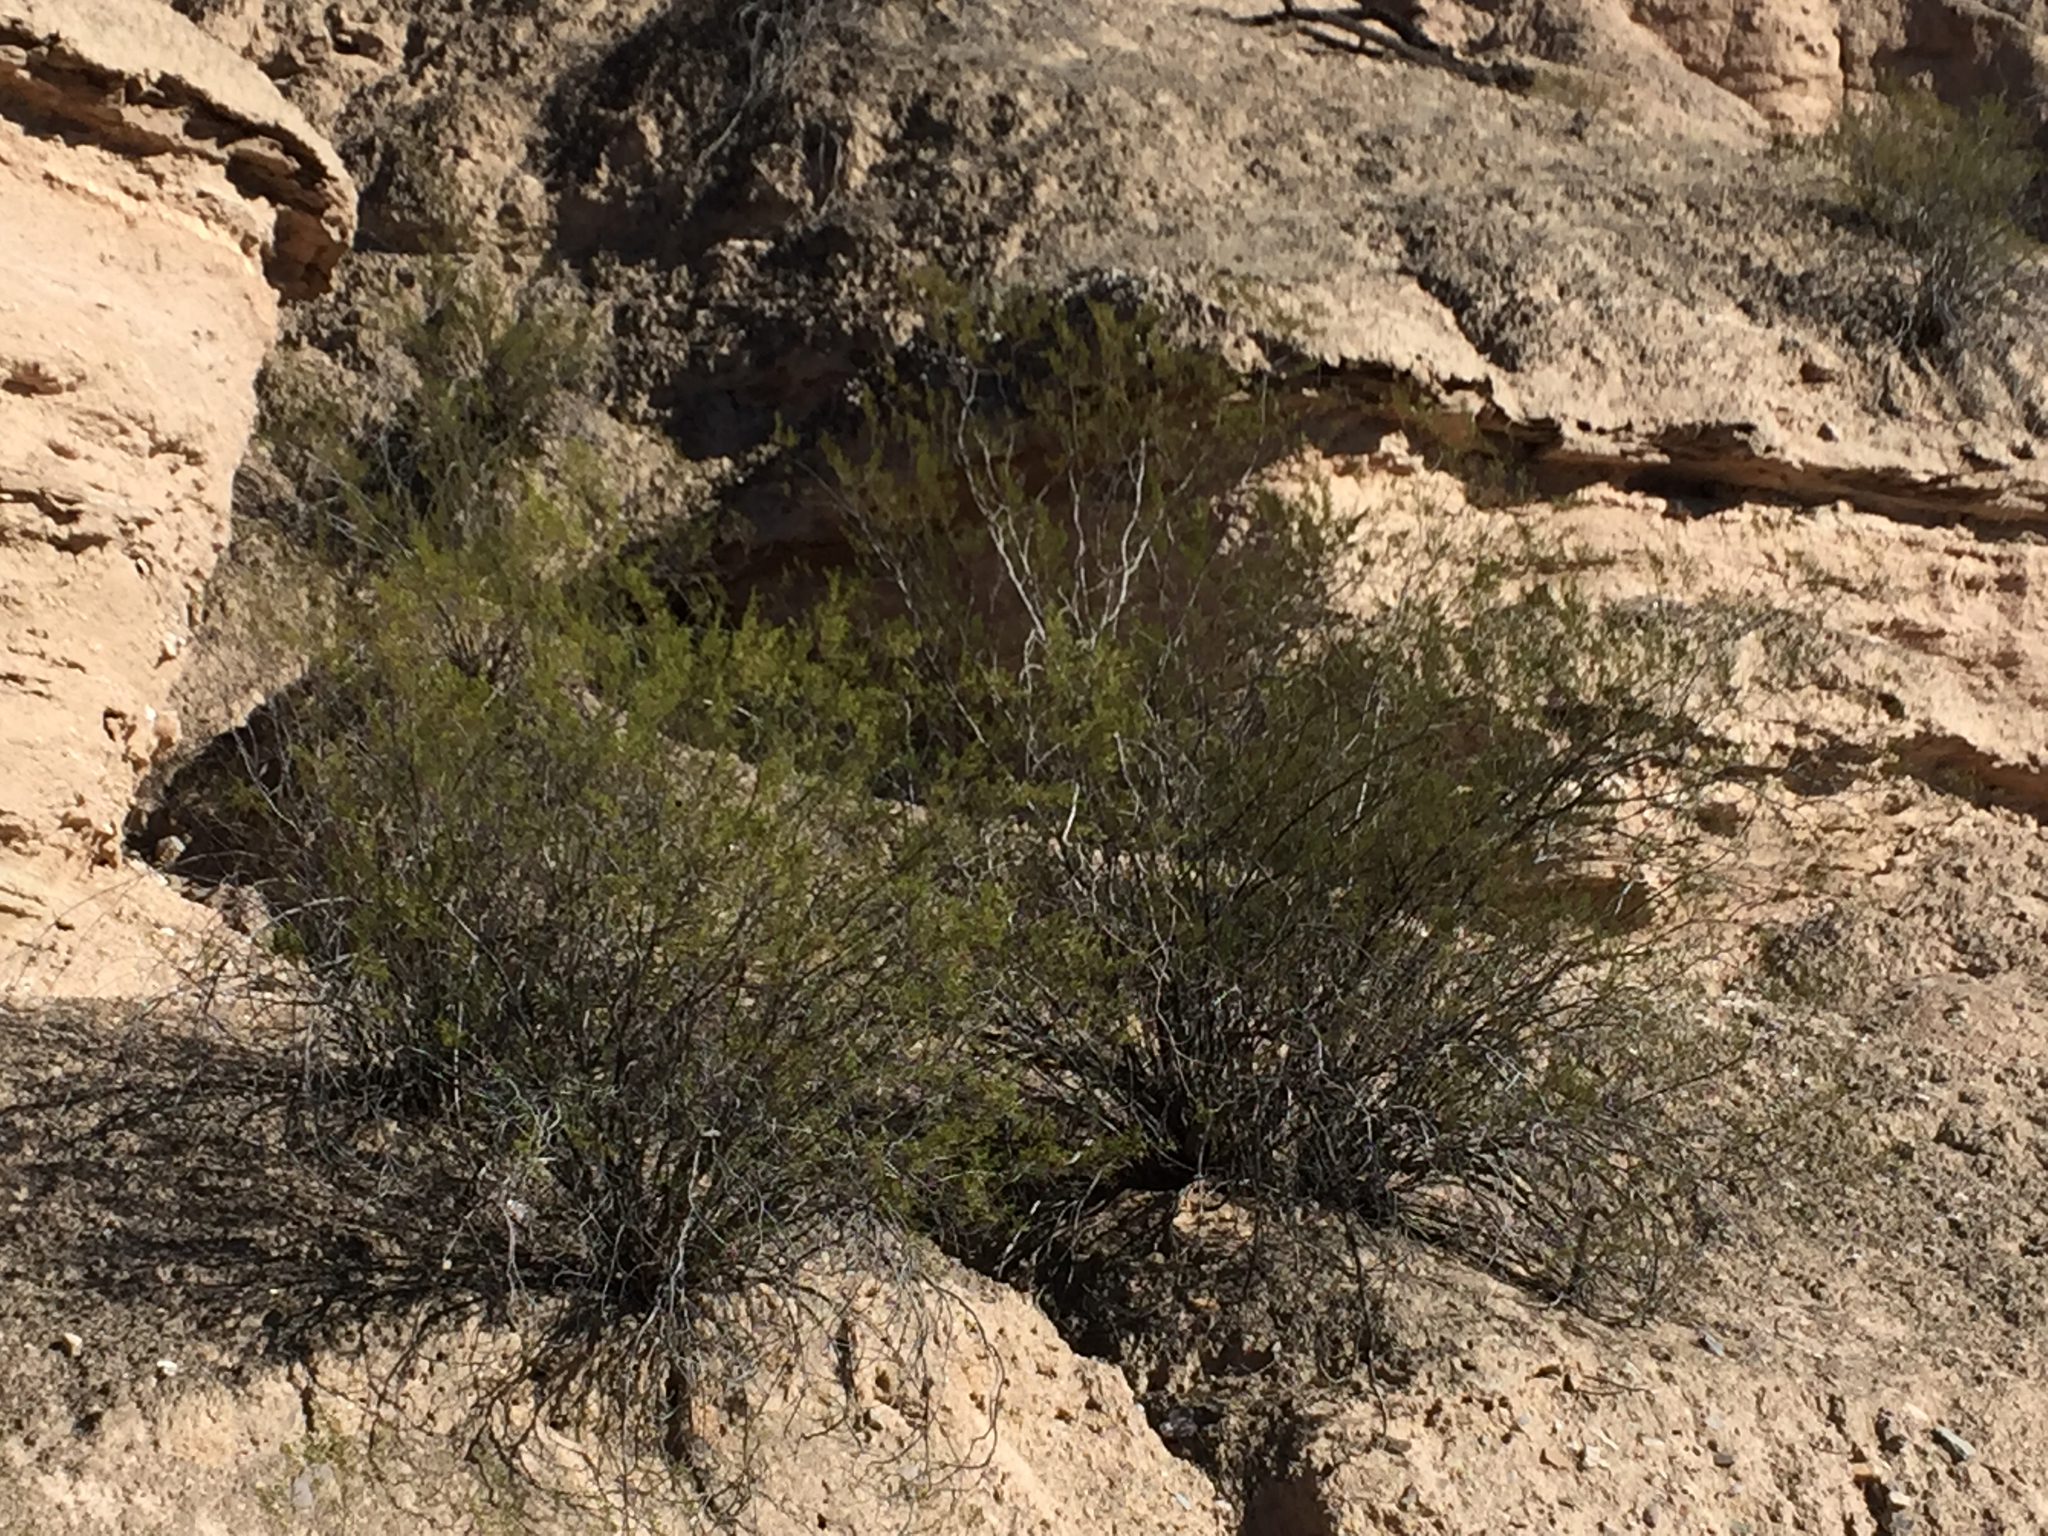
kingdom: Plantae
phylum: Tracheophyta
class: Magnoliopsida
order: Zygophyllales
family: Zygophyllaceae
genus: Larrea
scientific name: Larrea tridentata
